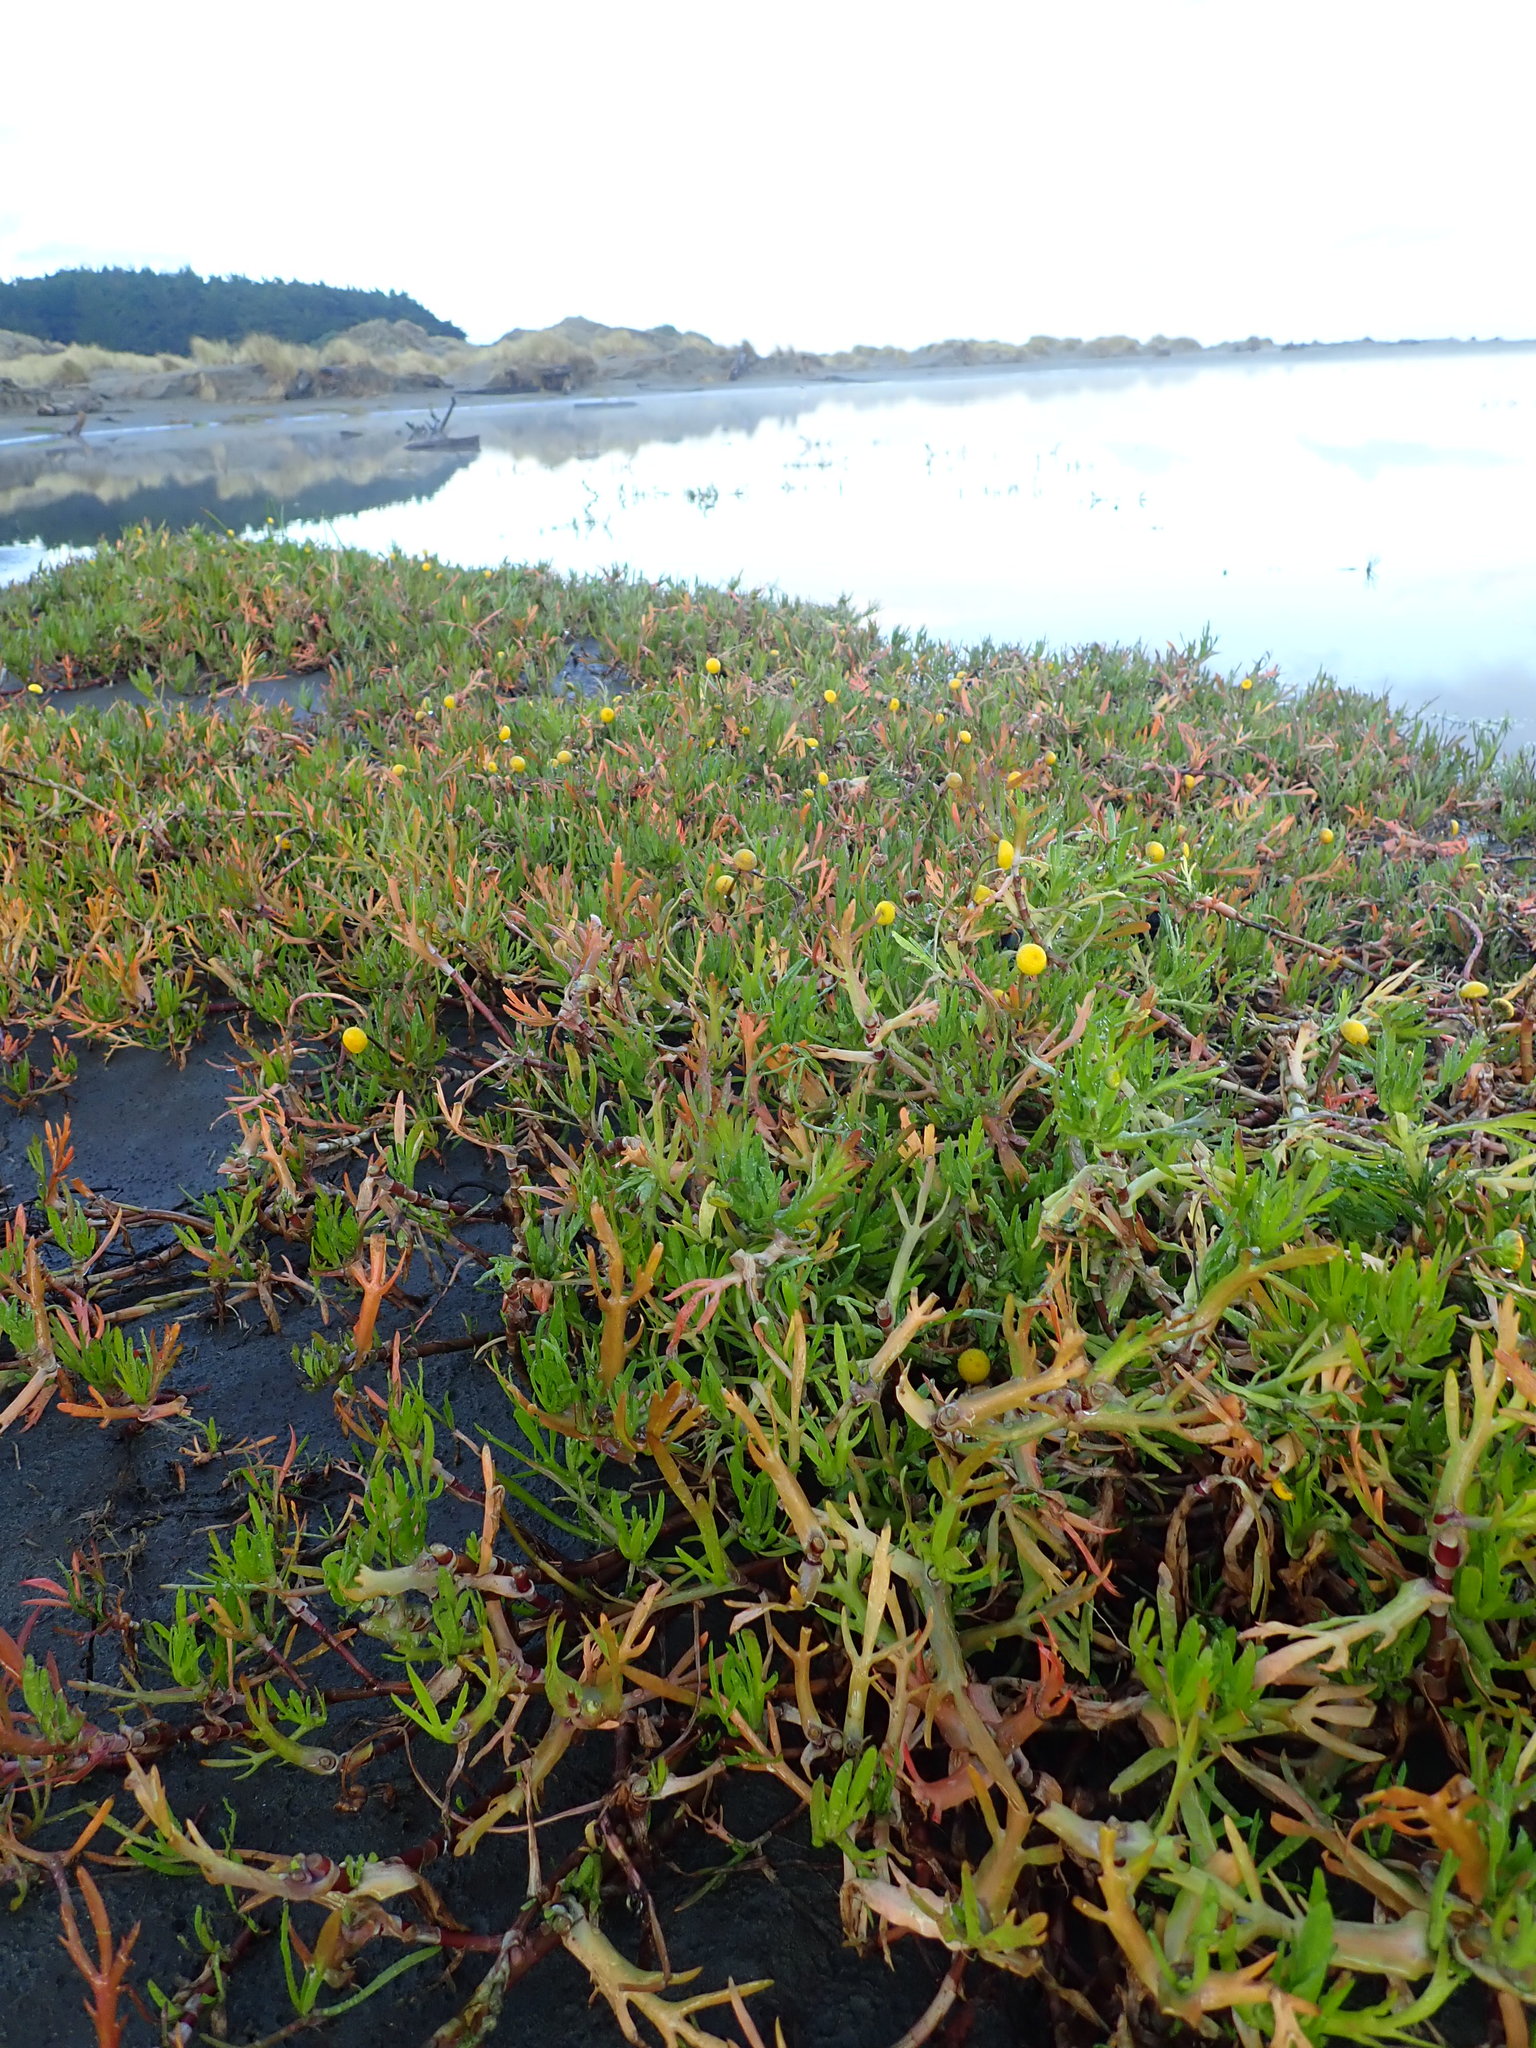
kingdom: Plantae
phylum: Tracheophyta
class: Magnoliopsida
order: Asterales
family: Asteraceae
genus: Cotula
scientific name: Cotula coronopifolia
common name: Buttonweed
